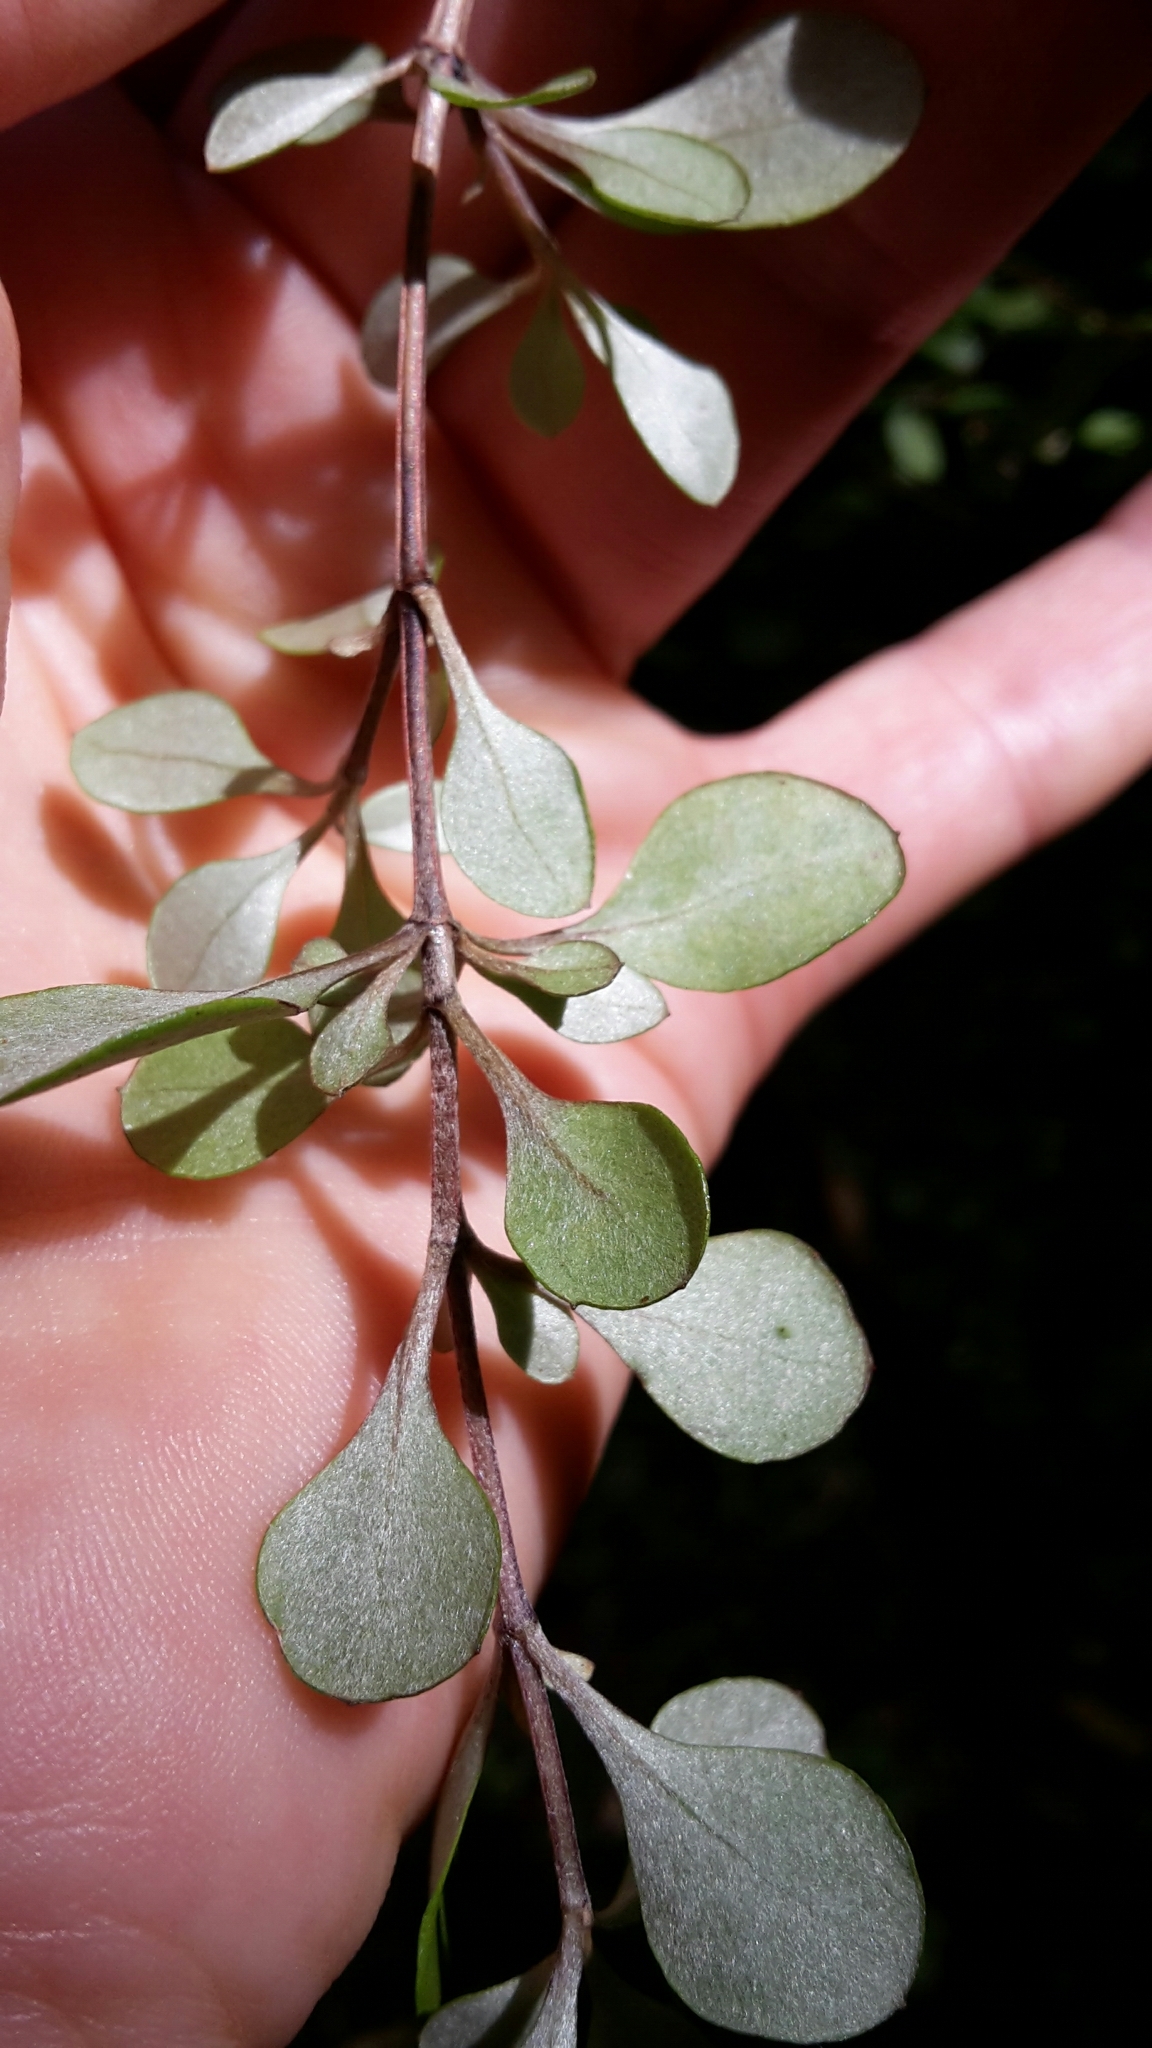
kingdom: Plantae
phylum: Tracheophyta
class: Magnoliopsida
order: Gentianales
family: Rubiaceae
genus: Coprosma
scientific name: Coprosma crassifolia
